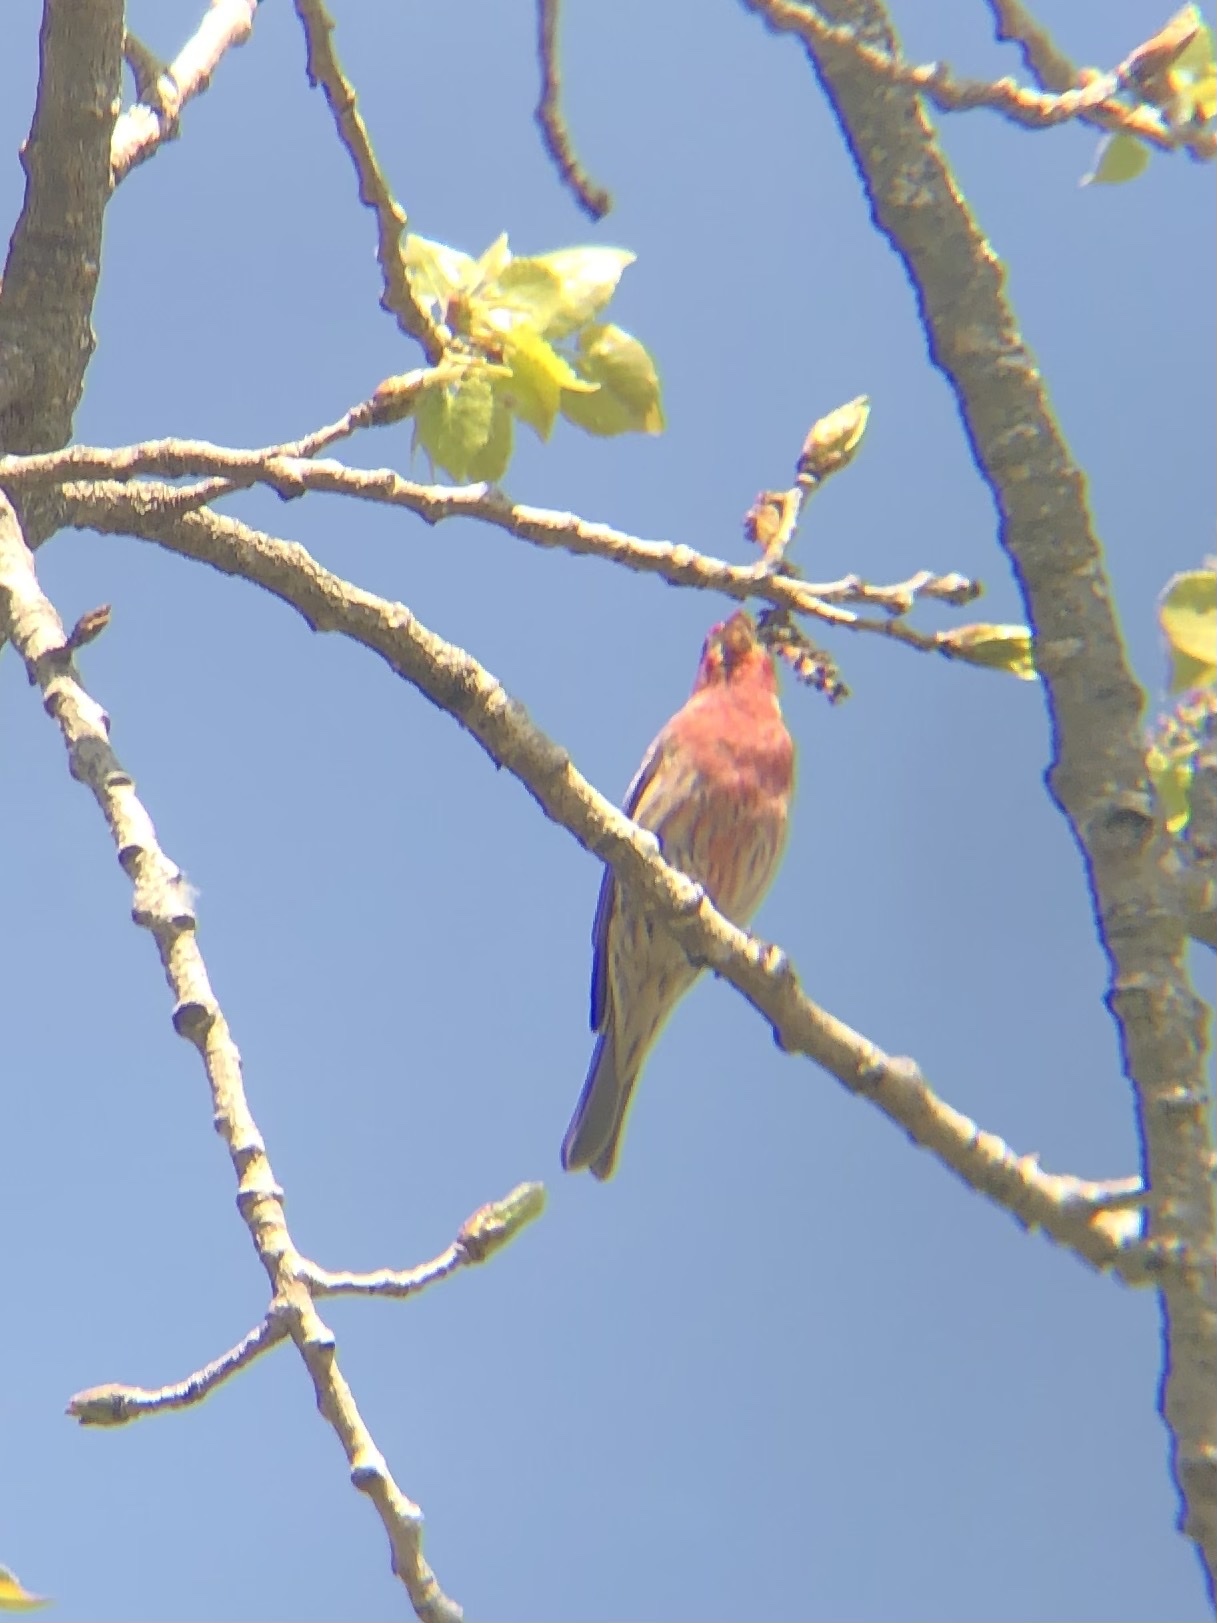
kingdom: Animalia
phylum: Chordata
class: Aves
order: Passeriformes
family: Fringillidae
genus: Haemorhous
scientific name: Haemorhous mexicanus
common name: House finch
